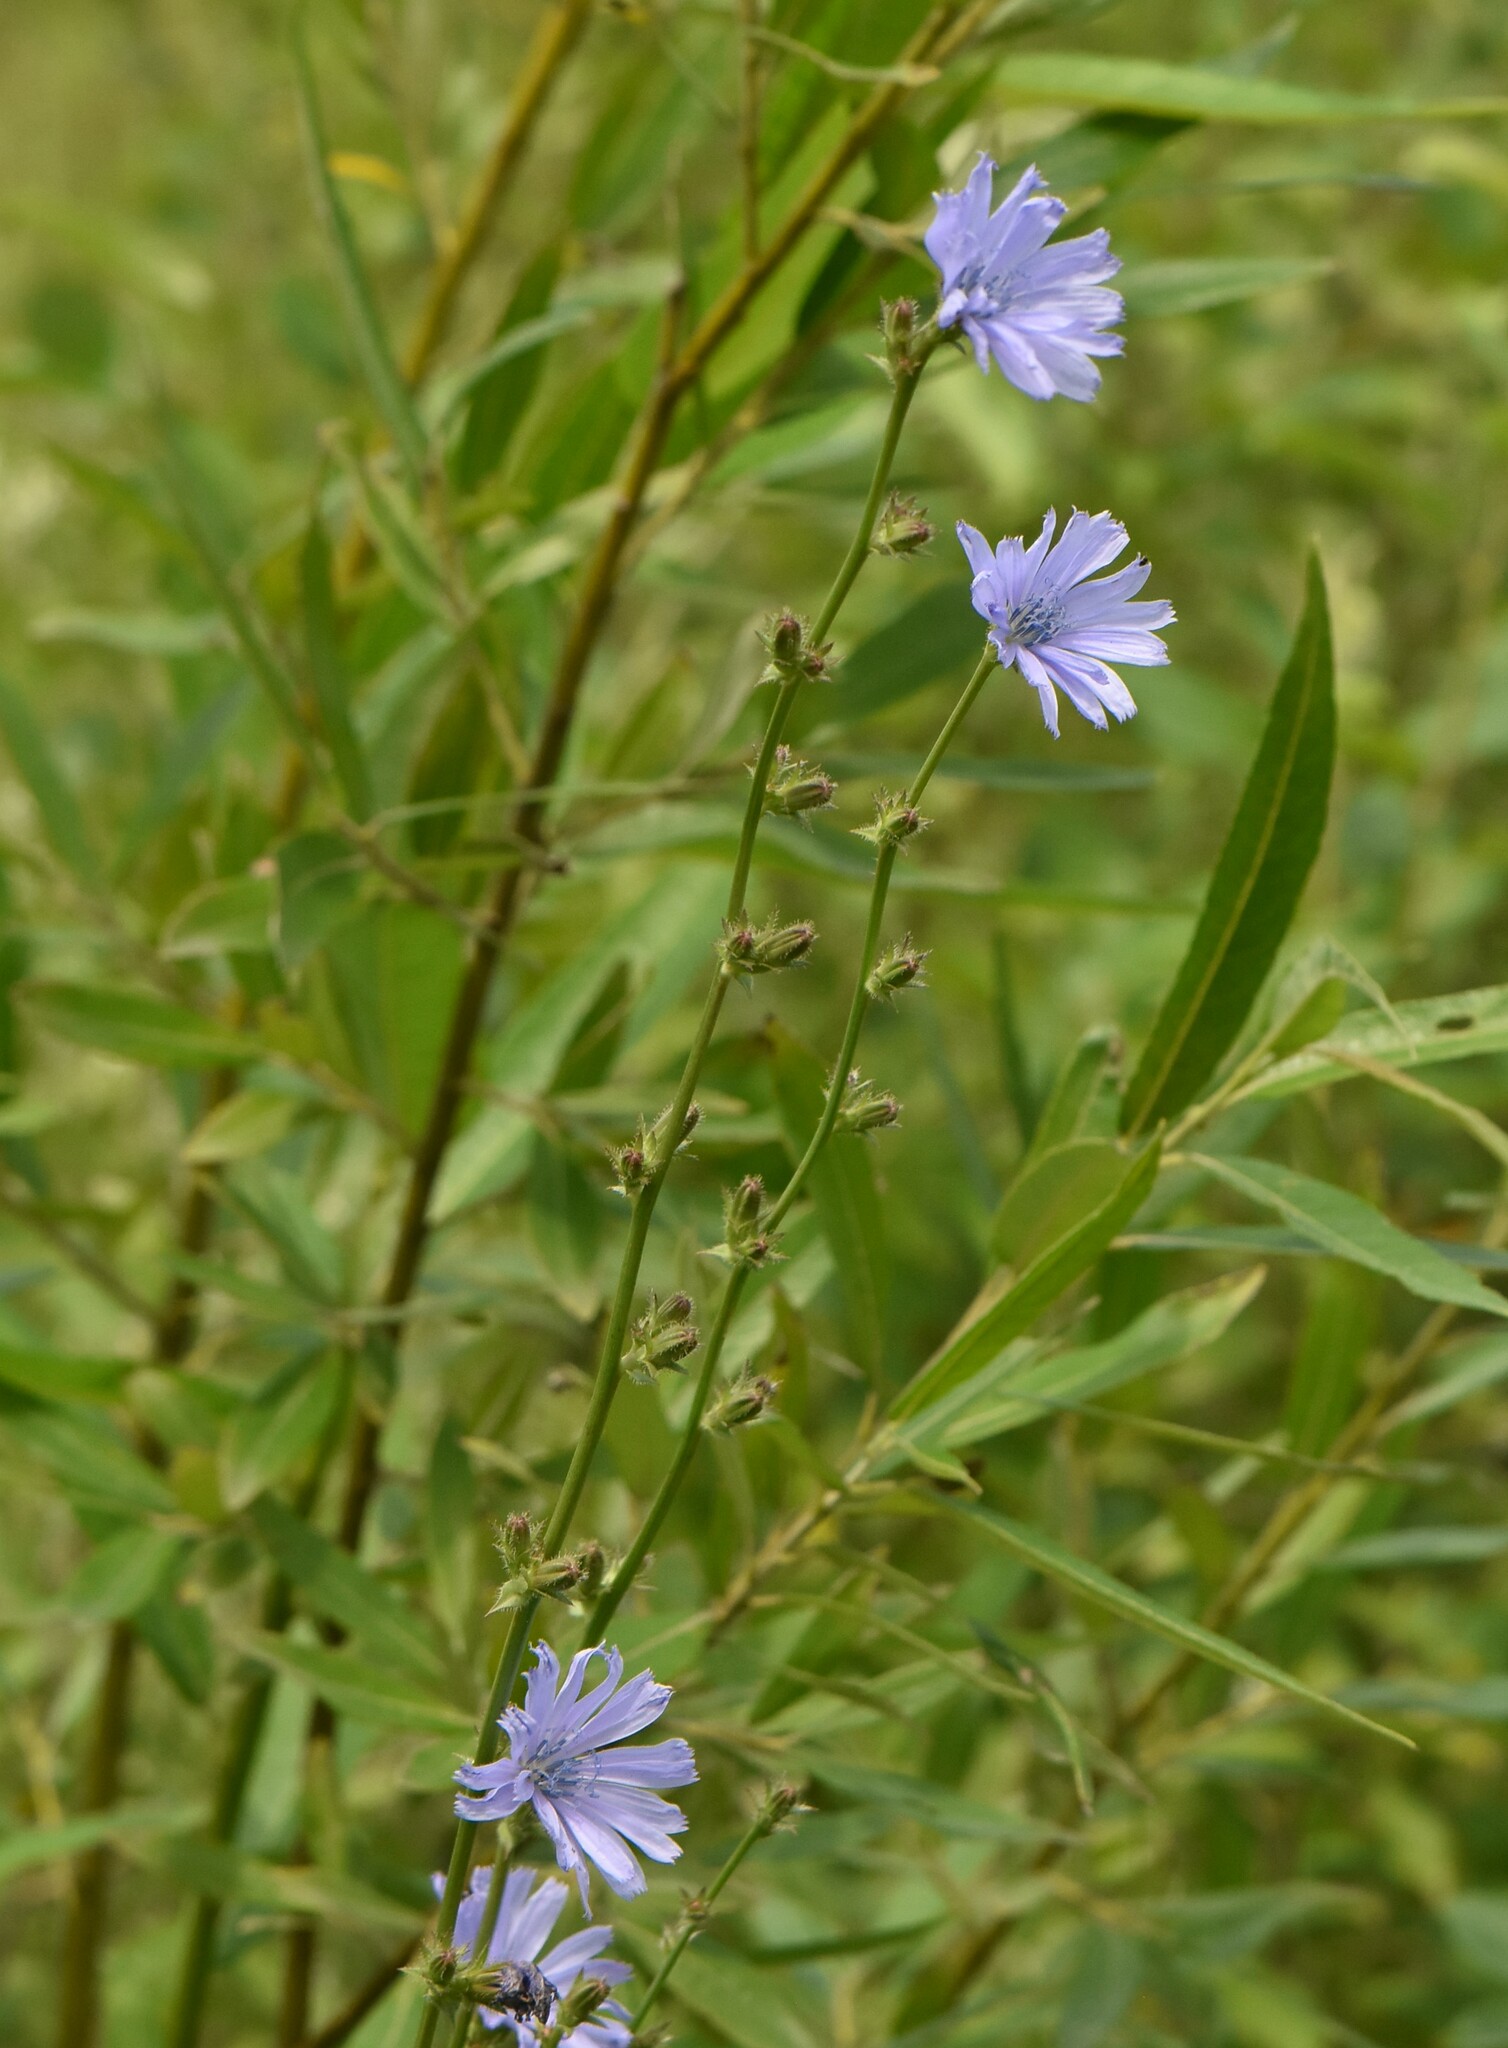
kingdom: Plantae
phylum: Tracheophyta
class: Magnoliopsida
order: Asterales
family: Asteraceae
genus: Cichorium
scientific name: Cichorium intybus
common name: Chicory
